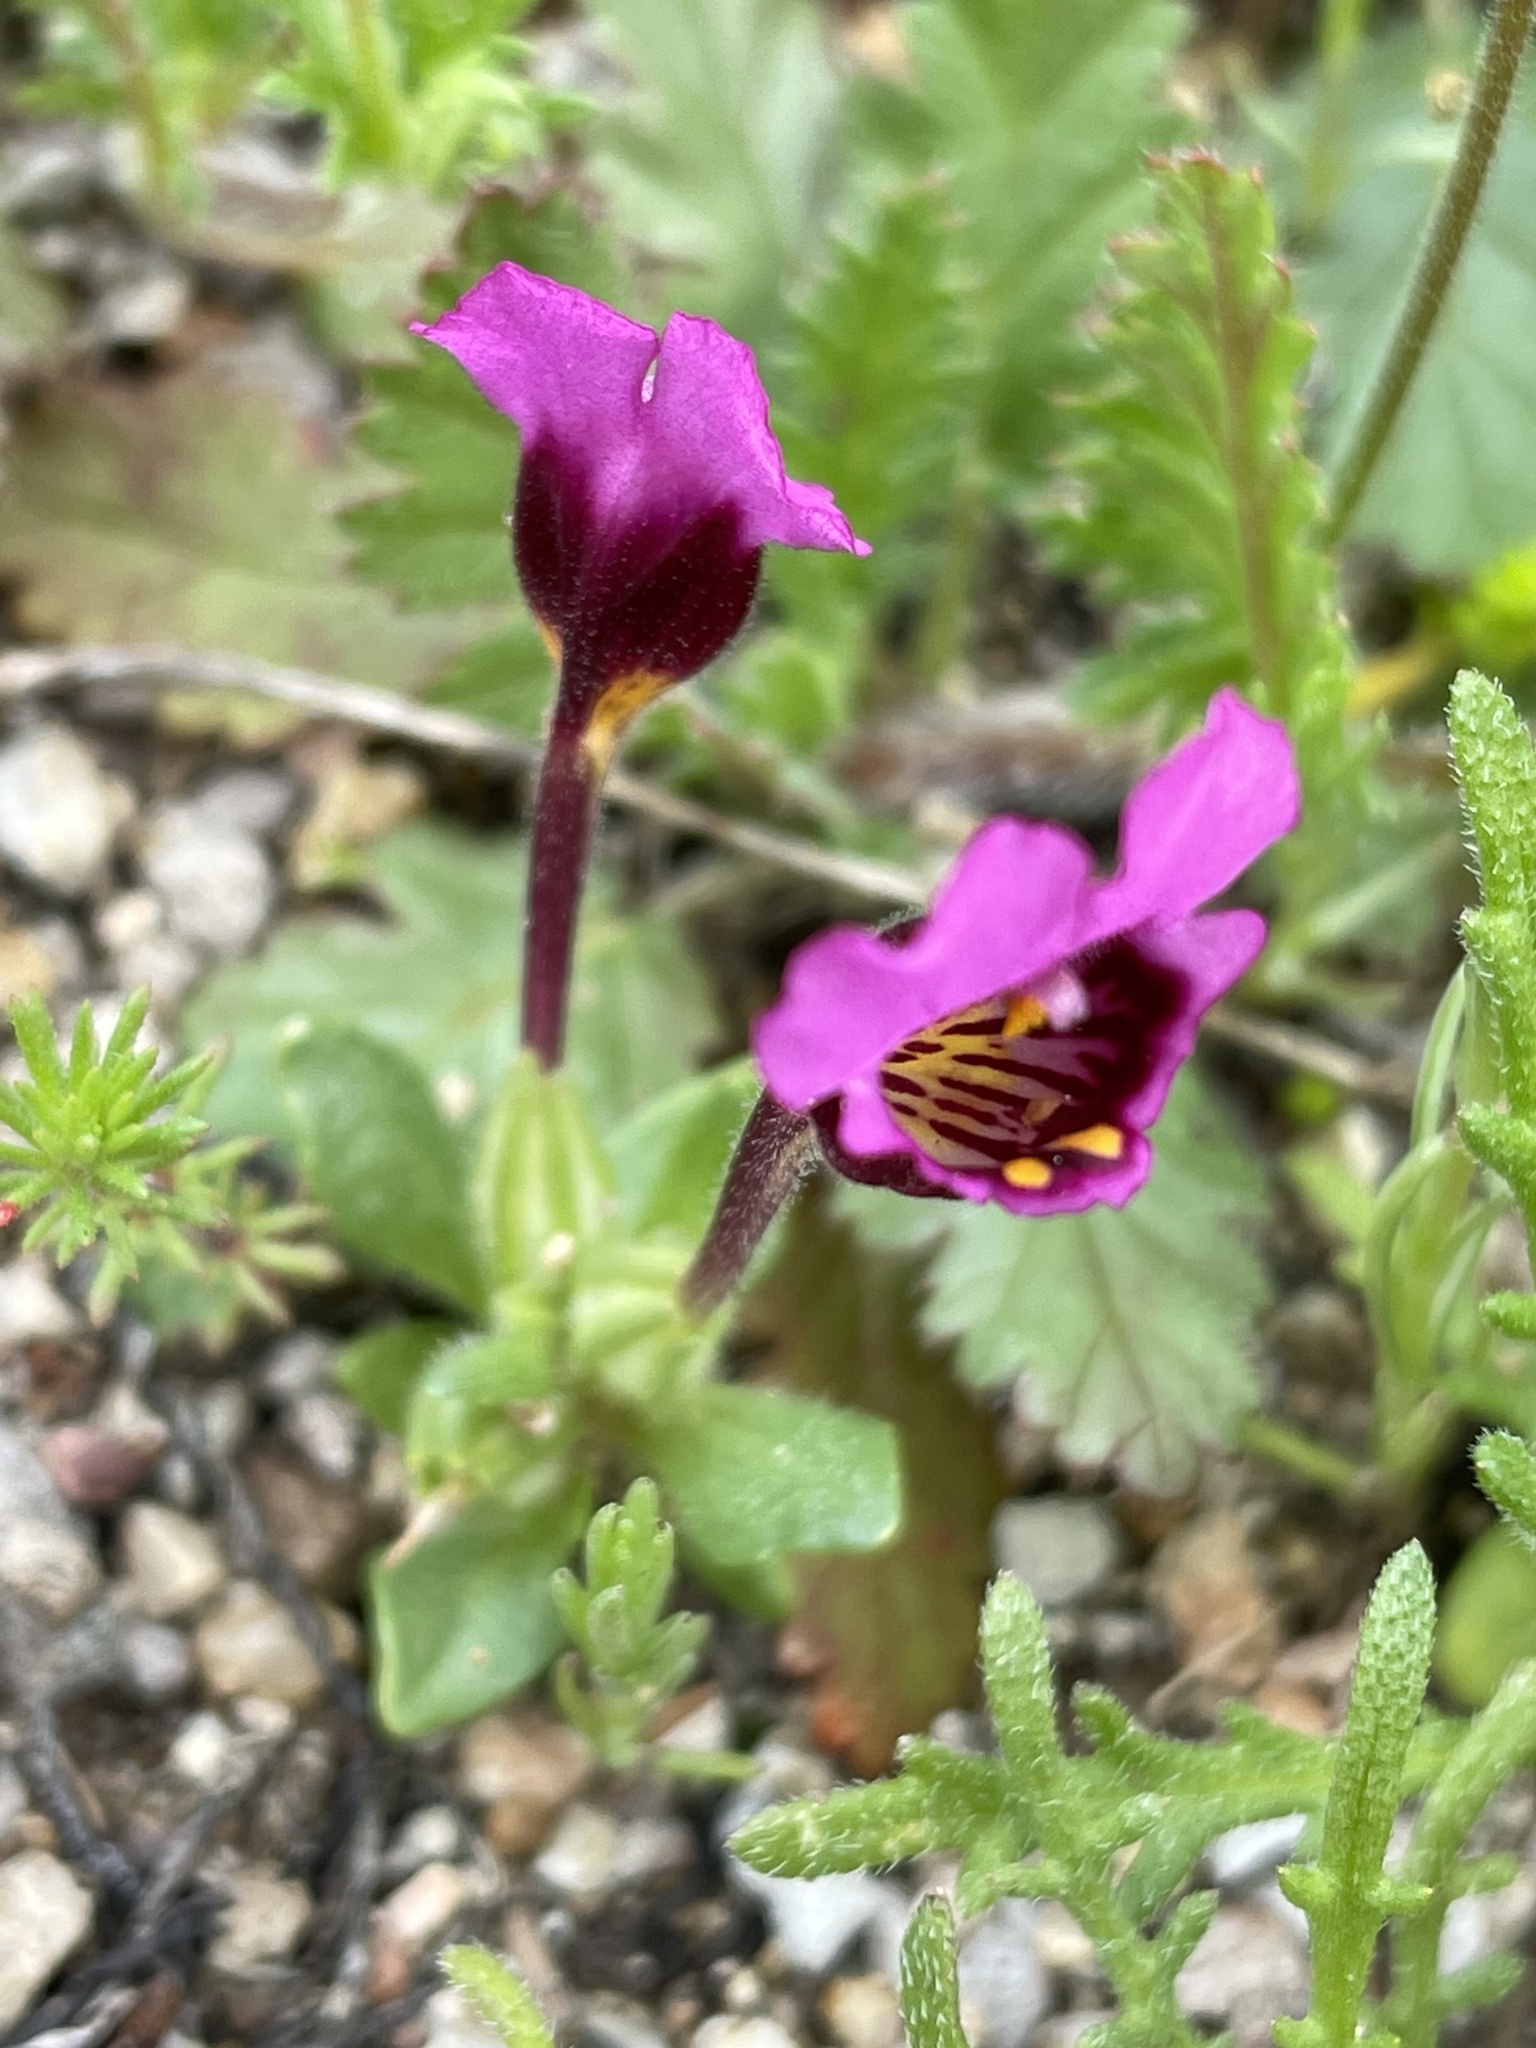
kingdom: Plantae
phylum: Tracheophyta
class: Magnoliopsida
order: Lamiales
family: Phrymaceae
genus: Diplacus
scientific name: Diplacus douglasii
